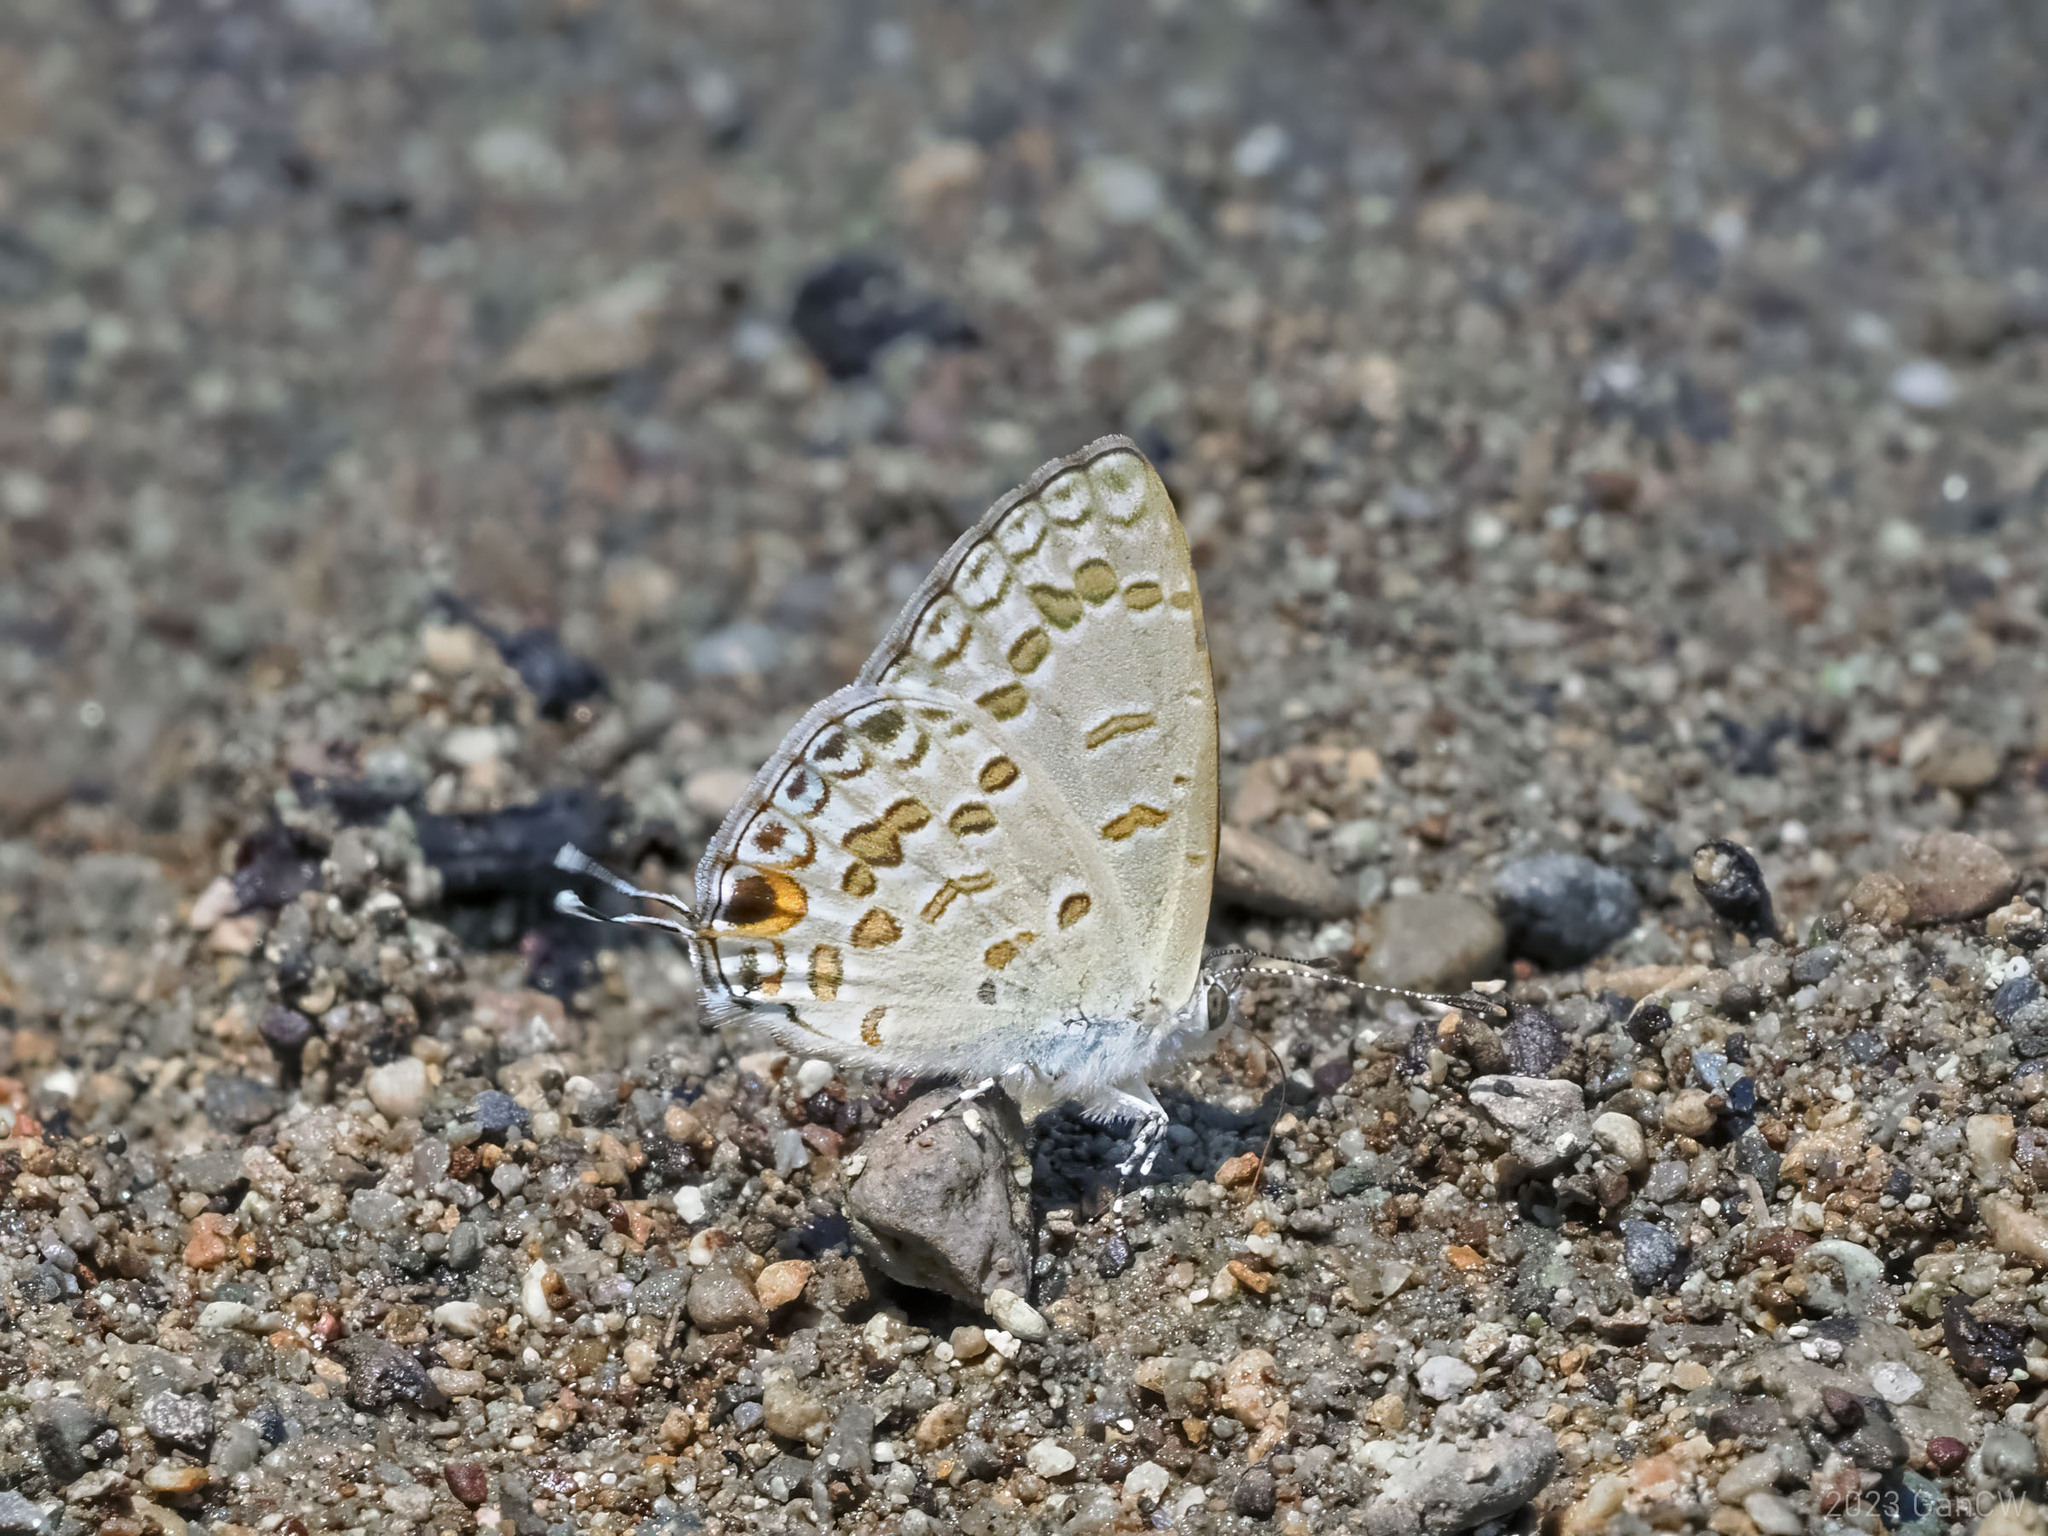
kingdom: Animalia
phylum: Arthropoda
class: Insecta
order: Lepidoptera
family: Lycaenidae
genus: Catopyrops
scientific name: Catopyrops rita
